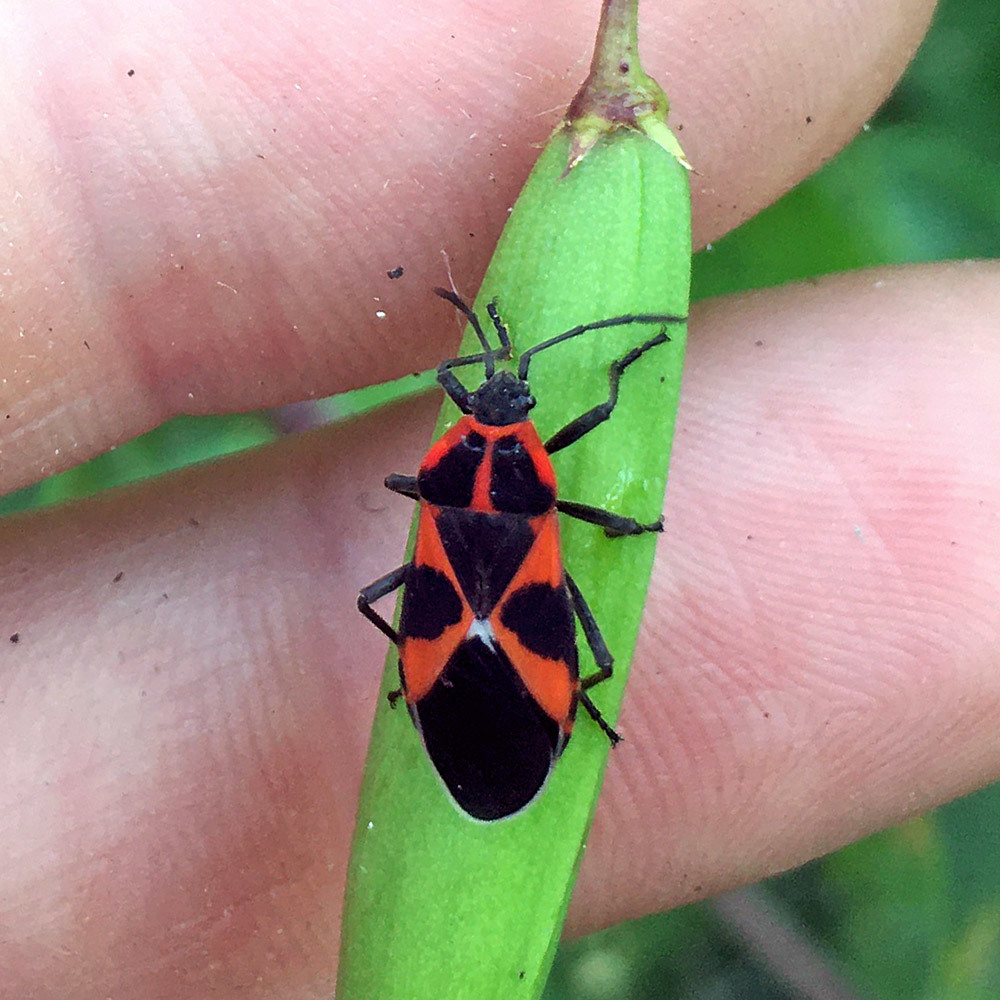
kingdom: Animalia
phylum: Arthropoda
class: Insecta
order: Hemiptera
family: Lygaeidae
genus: Tropidothorax
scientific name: Tropidothorax leucopterus
